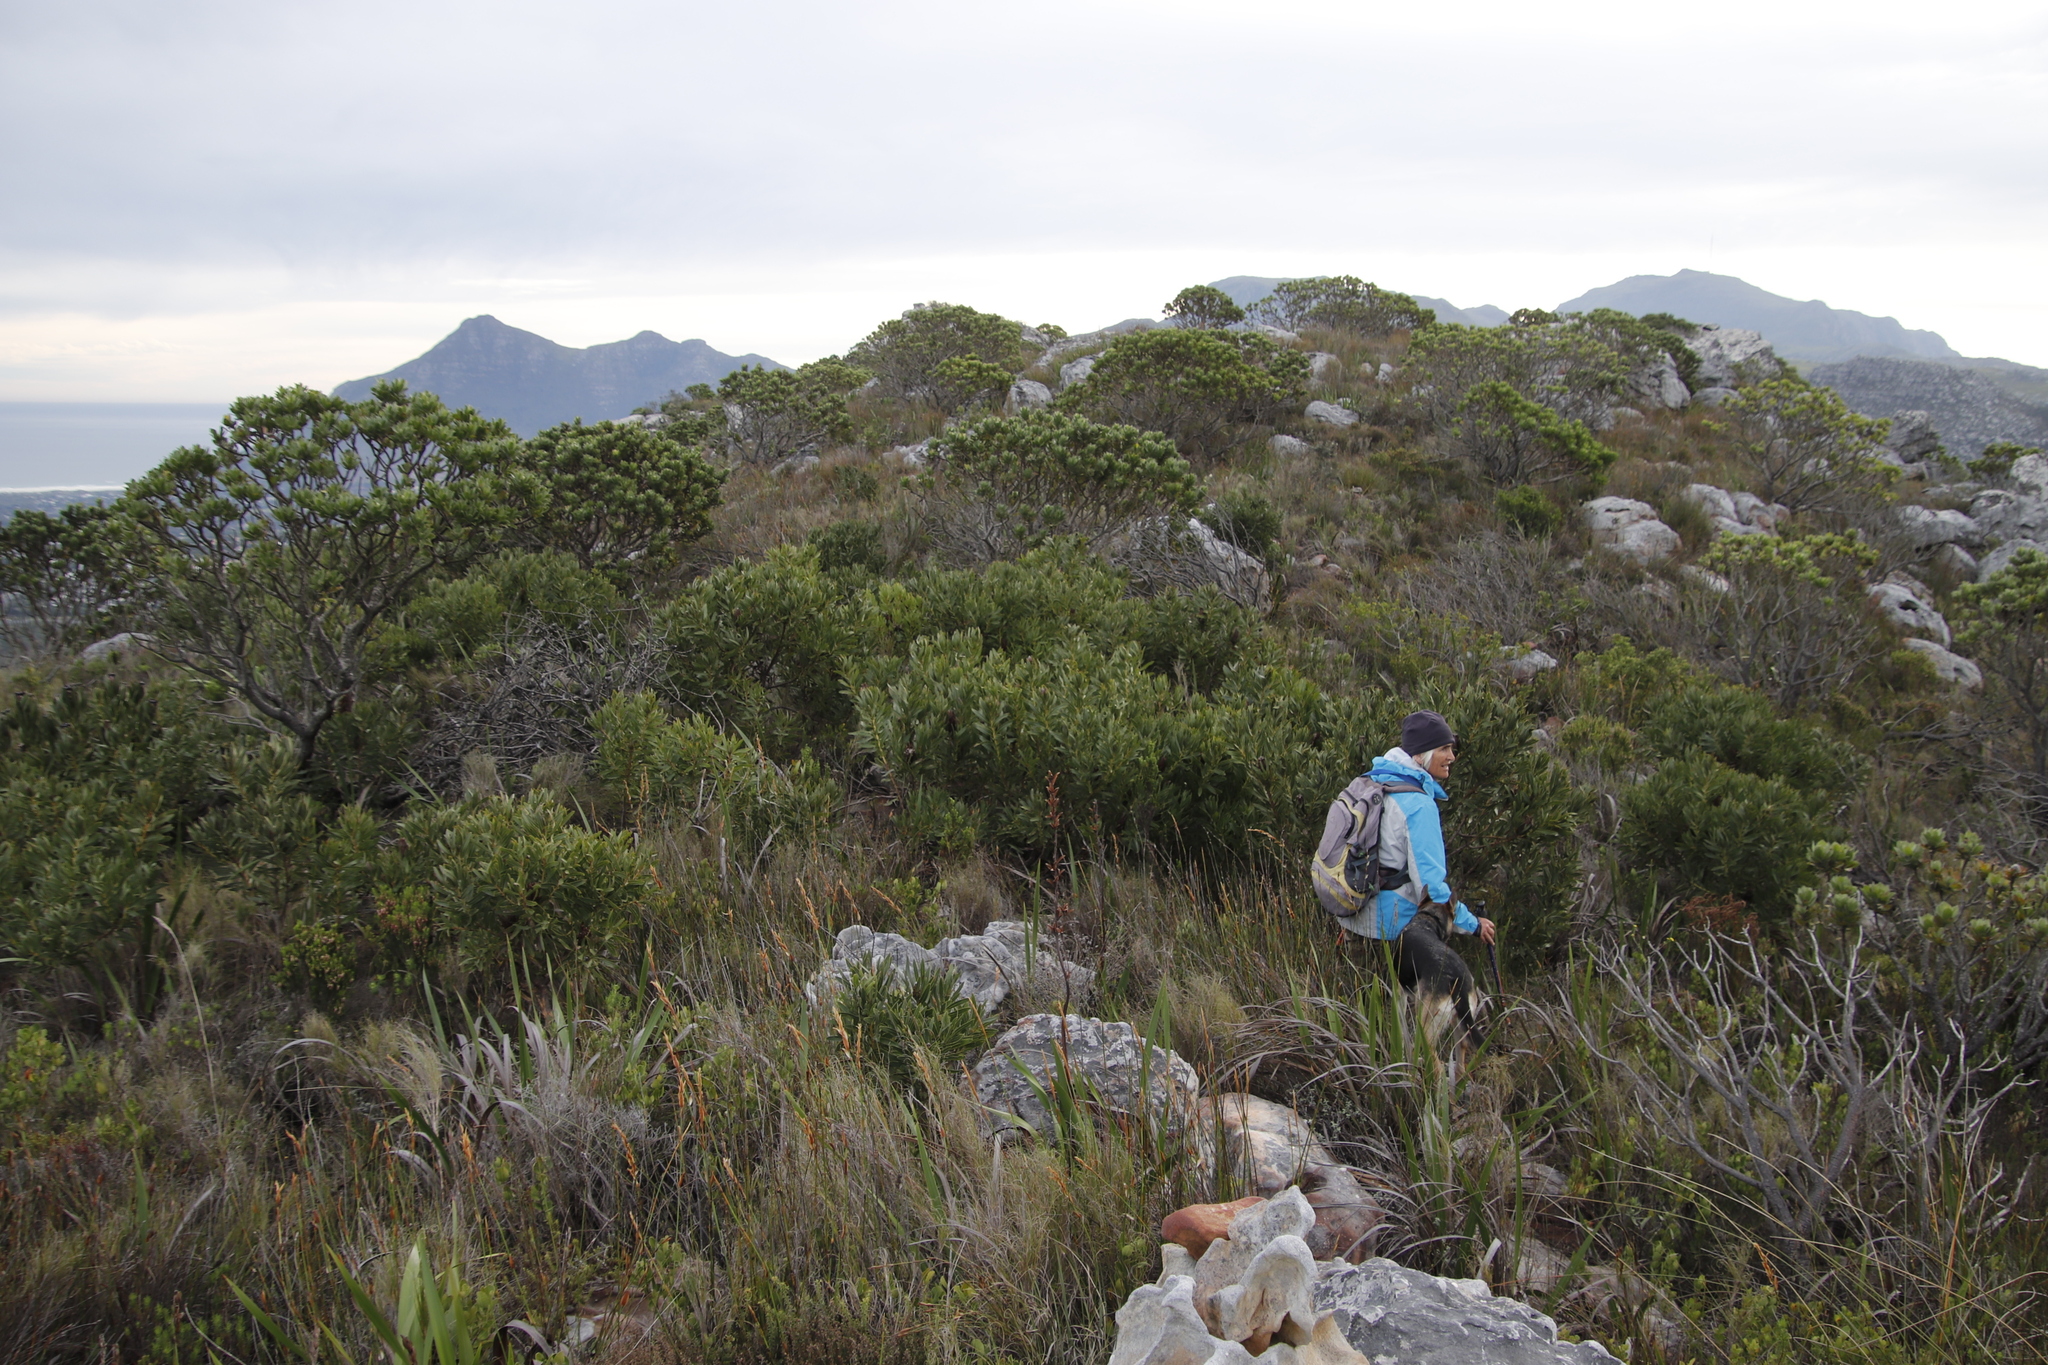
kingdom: Plantae
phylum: Tracheophyta
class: Magnoliopsida
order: Proteales
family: Proteaceae
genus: Protea
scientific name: Protea lepidocarpodendron
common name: Black-bearded protea
